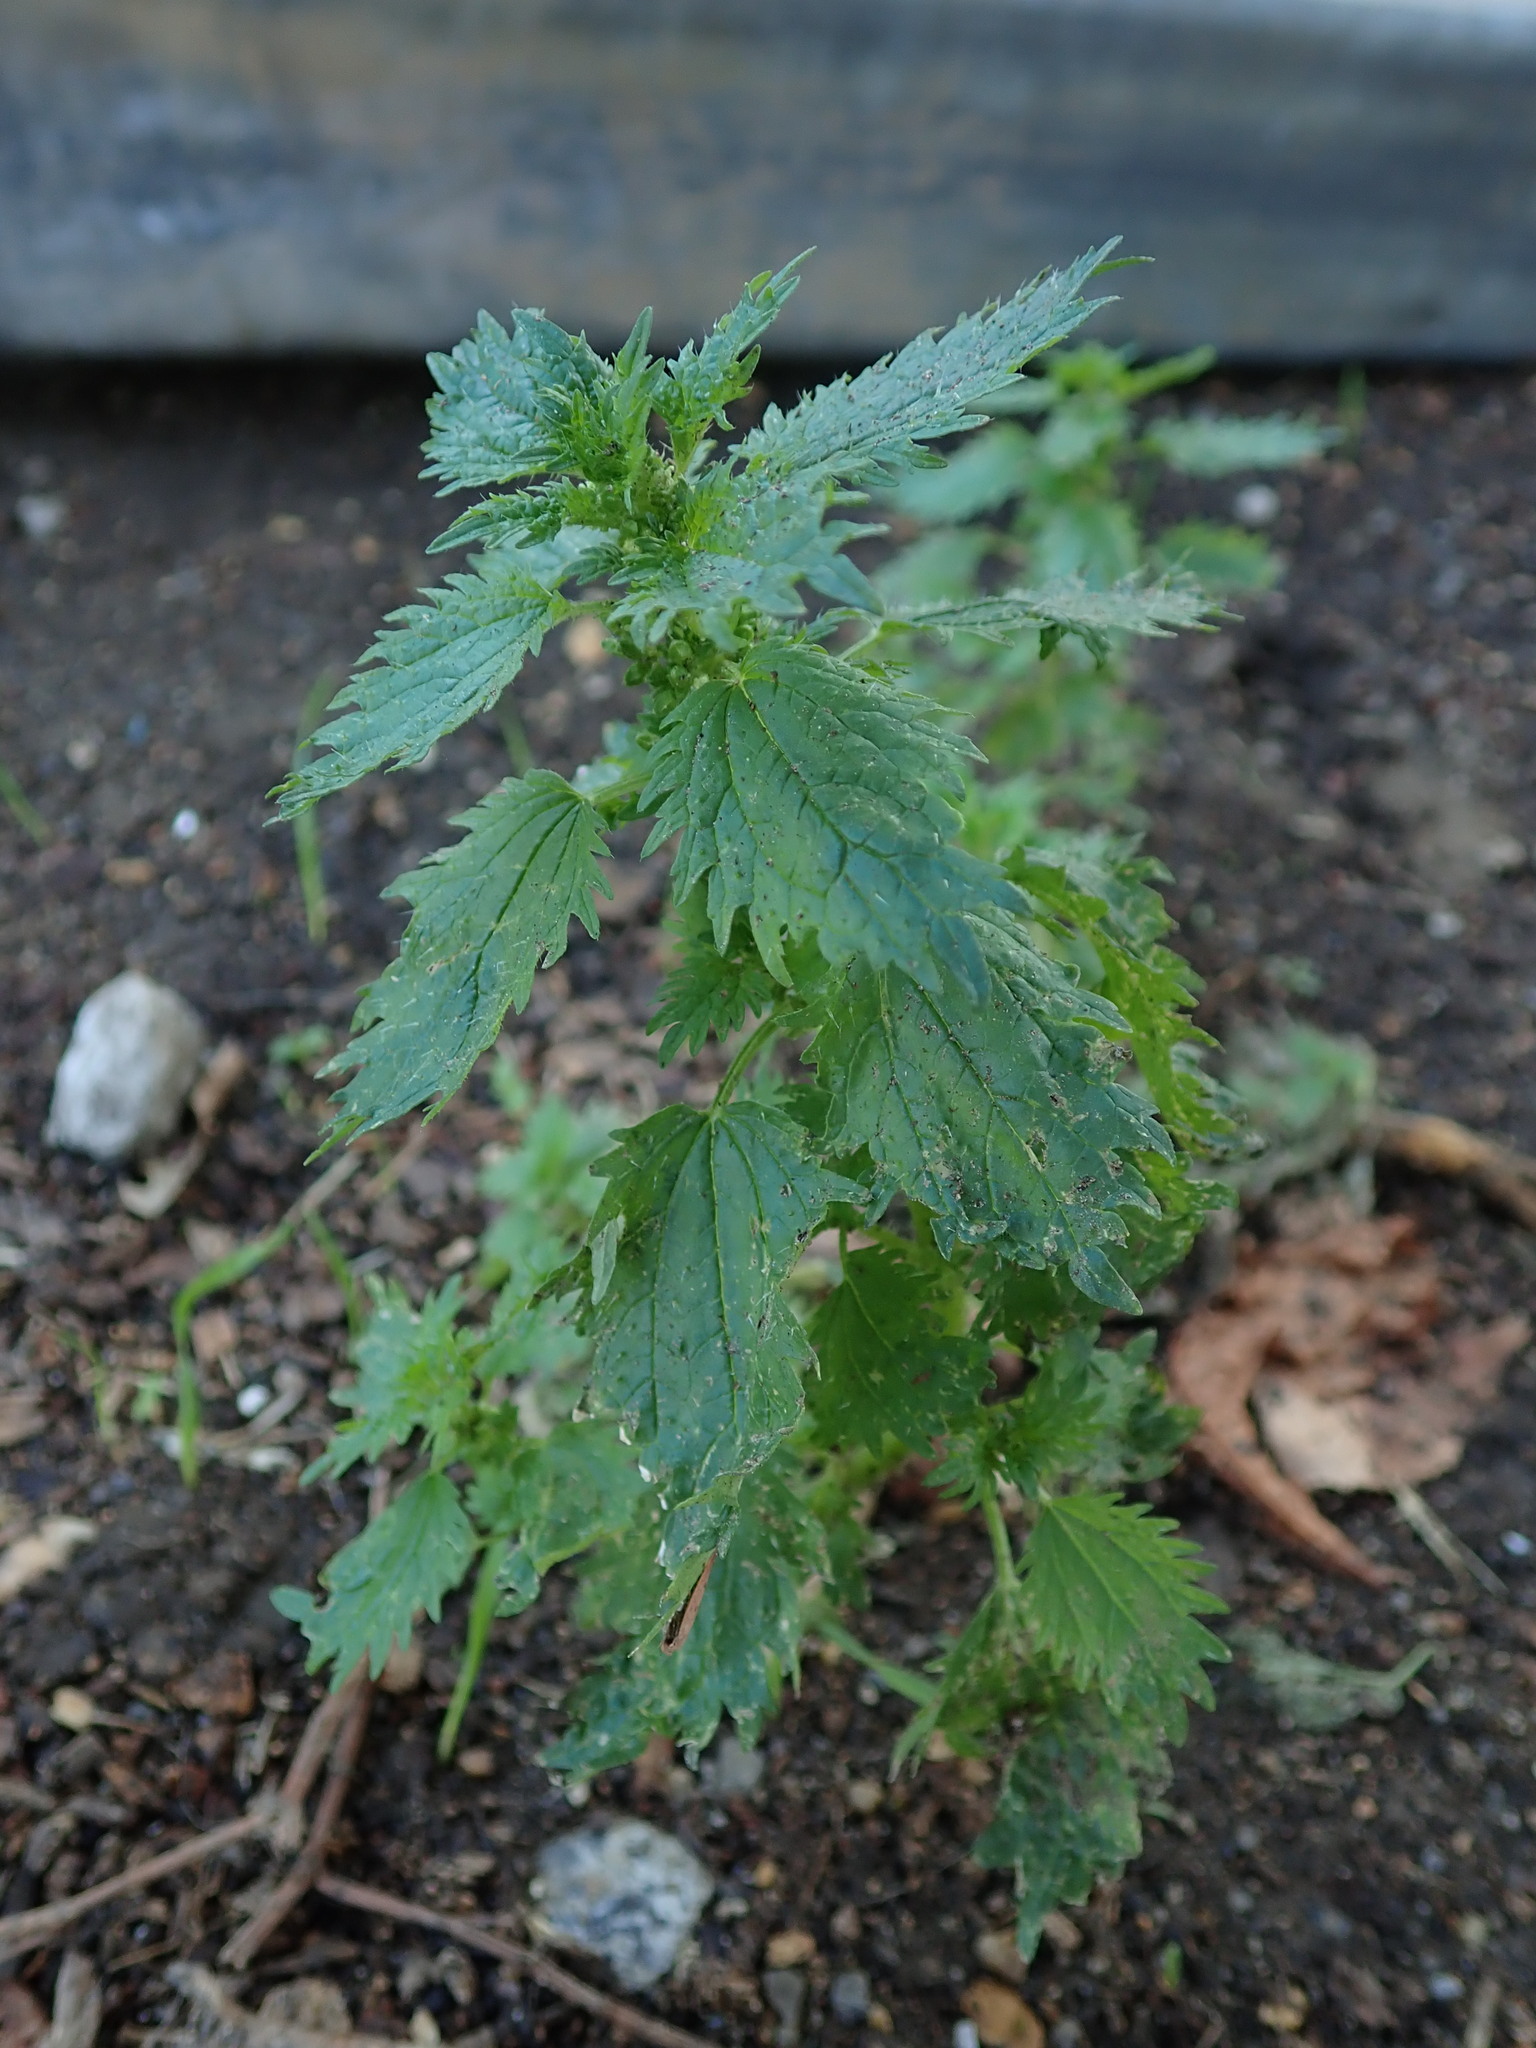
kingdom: Plantae
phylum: Tracheophyta
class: Magnoliopsida
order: Rosales
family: Urticaceae
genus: Urtica
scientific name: Urtica urens
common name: Dwarf nettle
